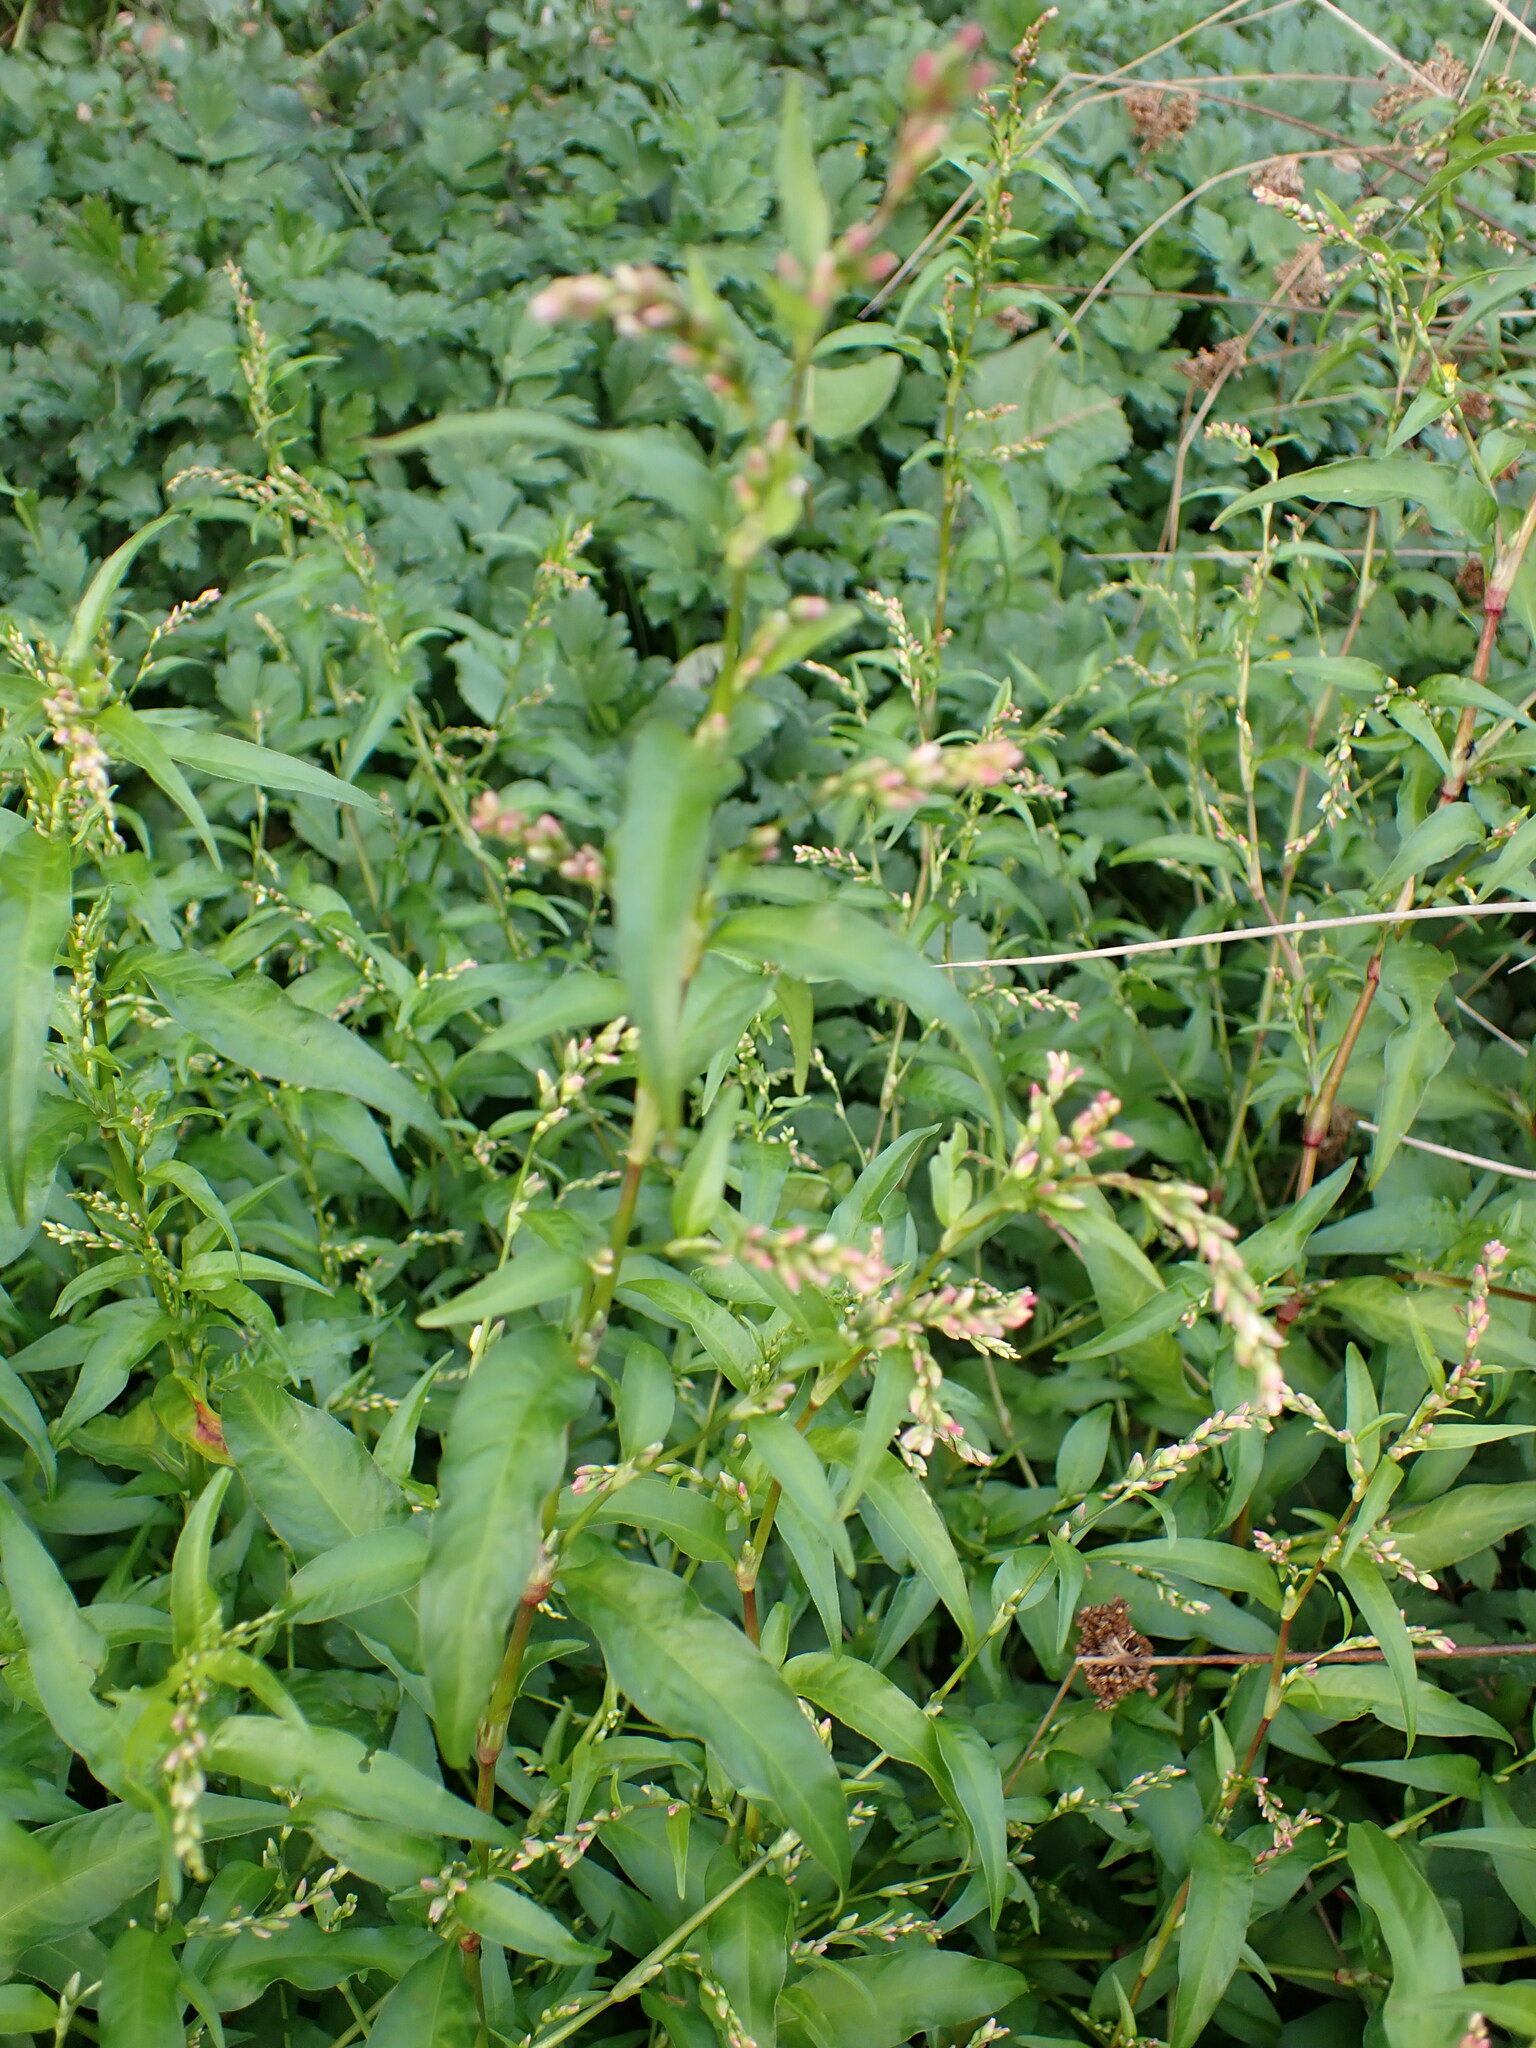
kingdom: Plantae
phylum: Tracheophyta
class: Magnoliopsida
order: Caryophyllales
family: Polygonaceae
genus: Persicaria
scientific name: Persicaria hydropiper
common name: Water-pepper
